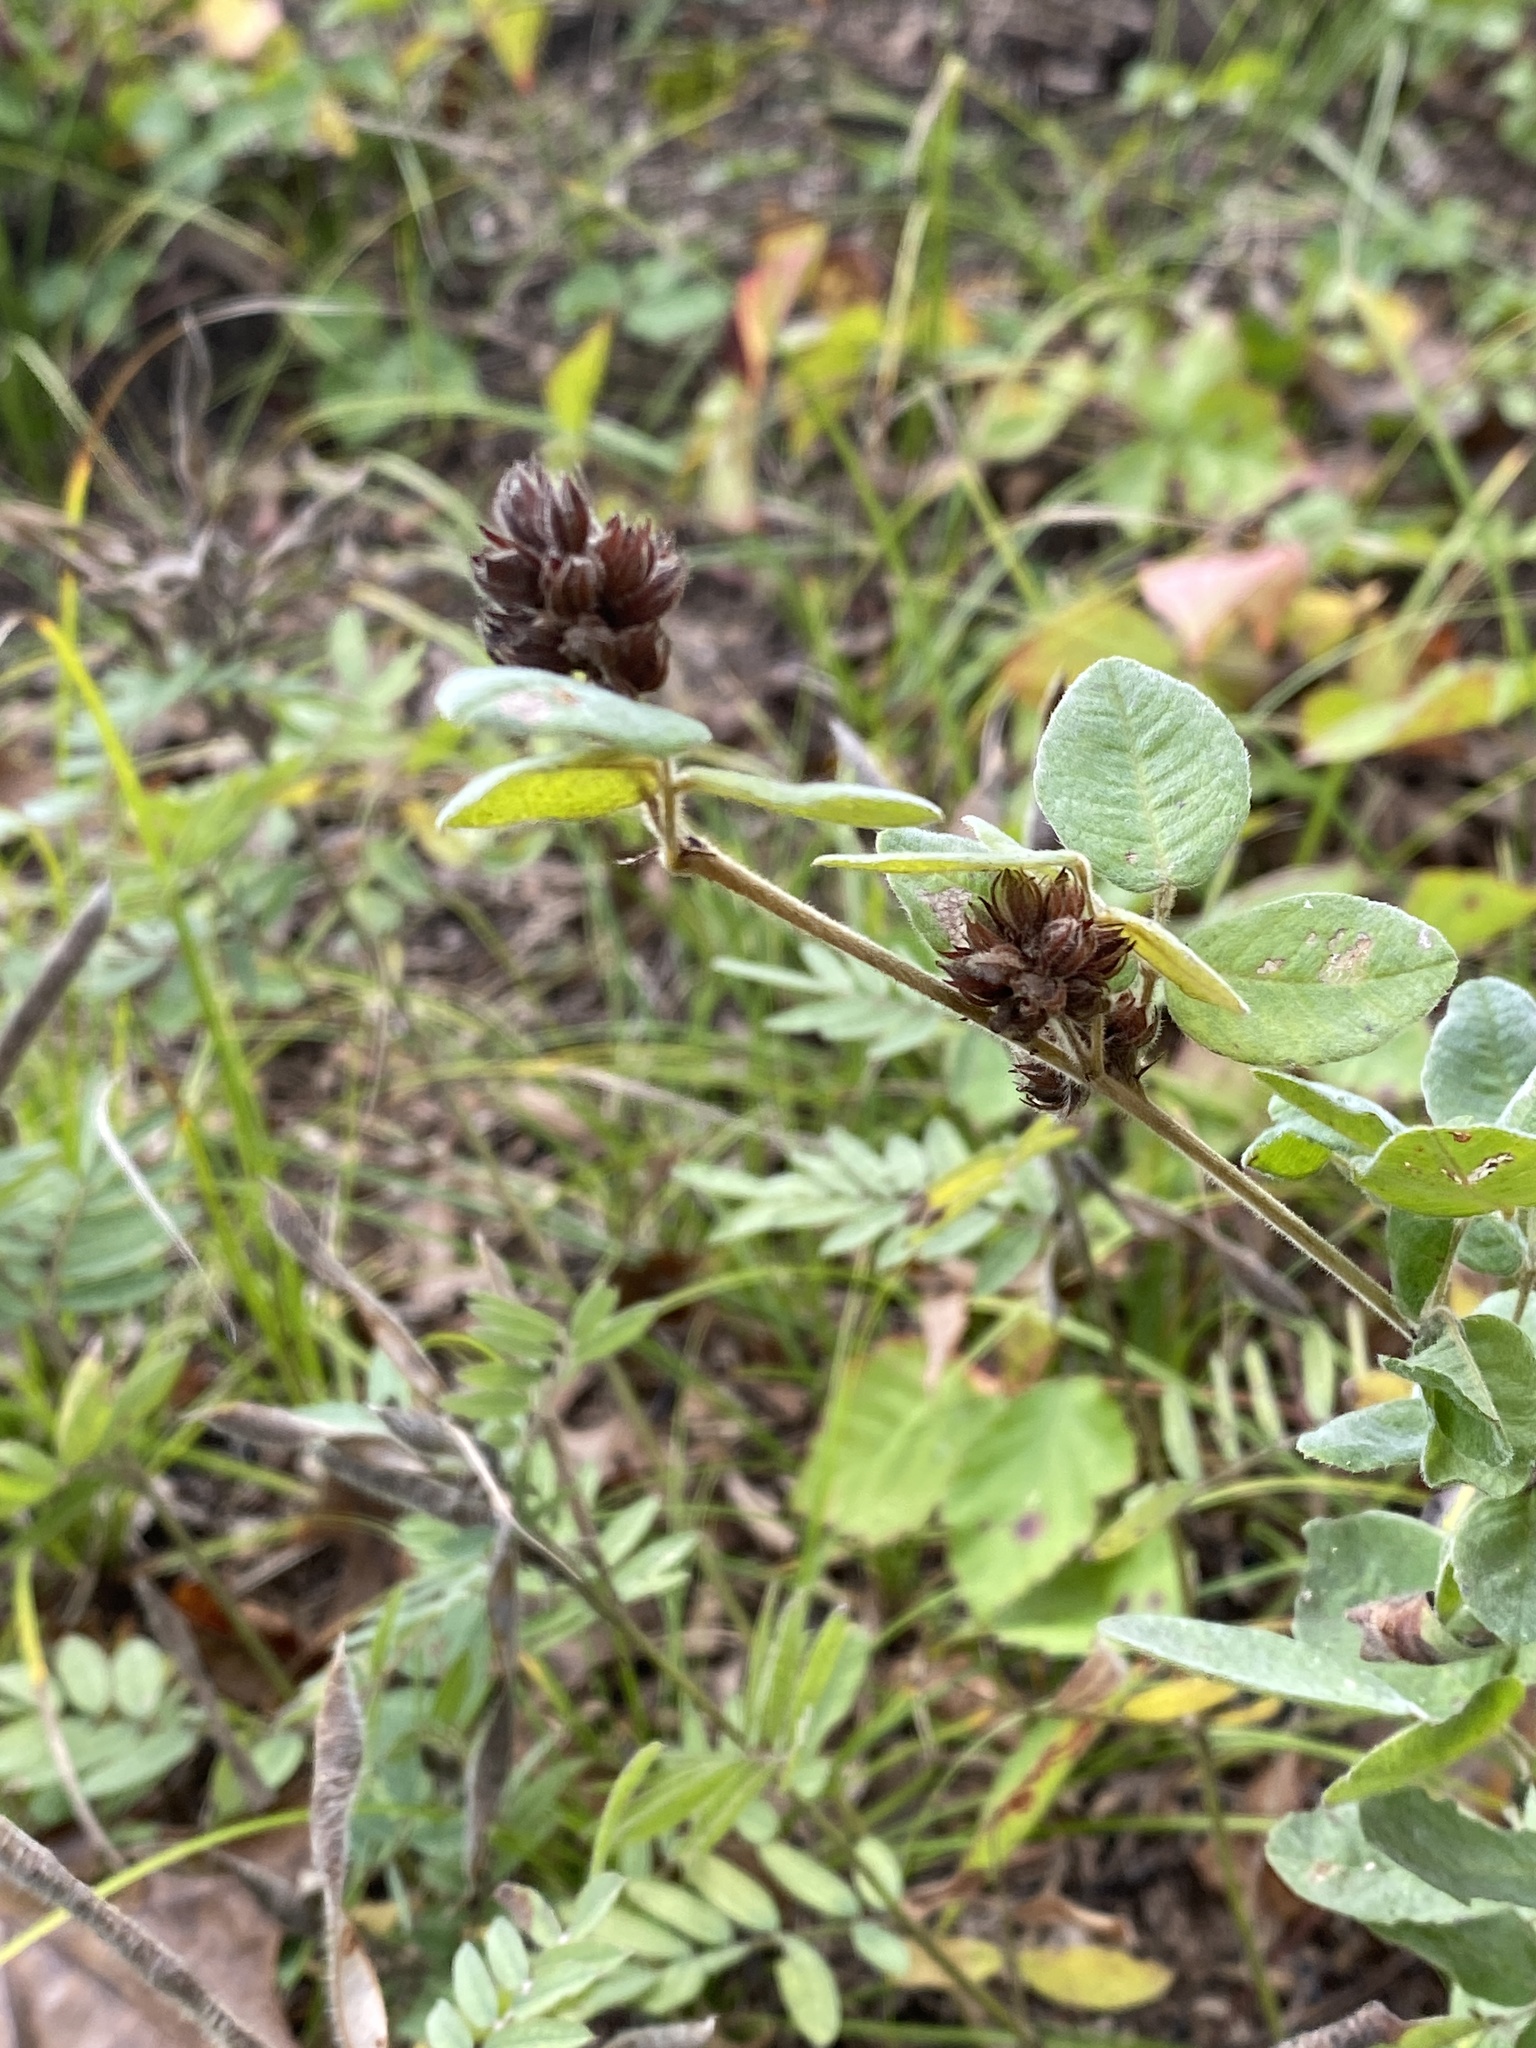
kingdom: Plantae
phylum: Tracheophyta
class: Magnoliopsida
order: Fabales
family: Fabaceae
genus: Lespedeza
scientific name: Lespedeza hirta
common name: Hairy lespedeza
